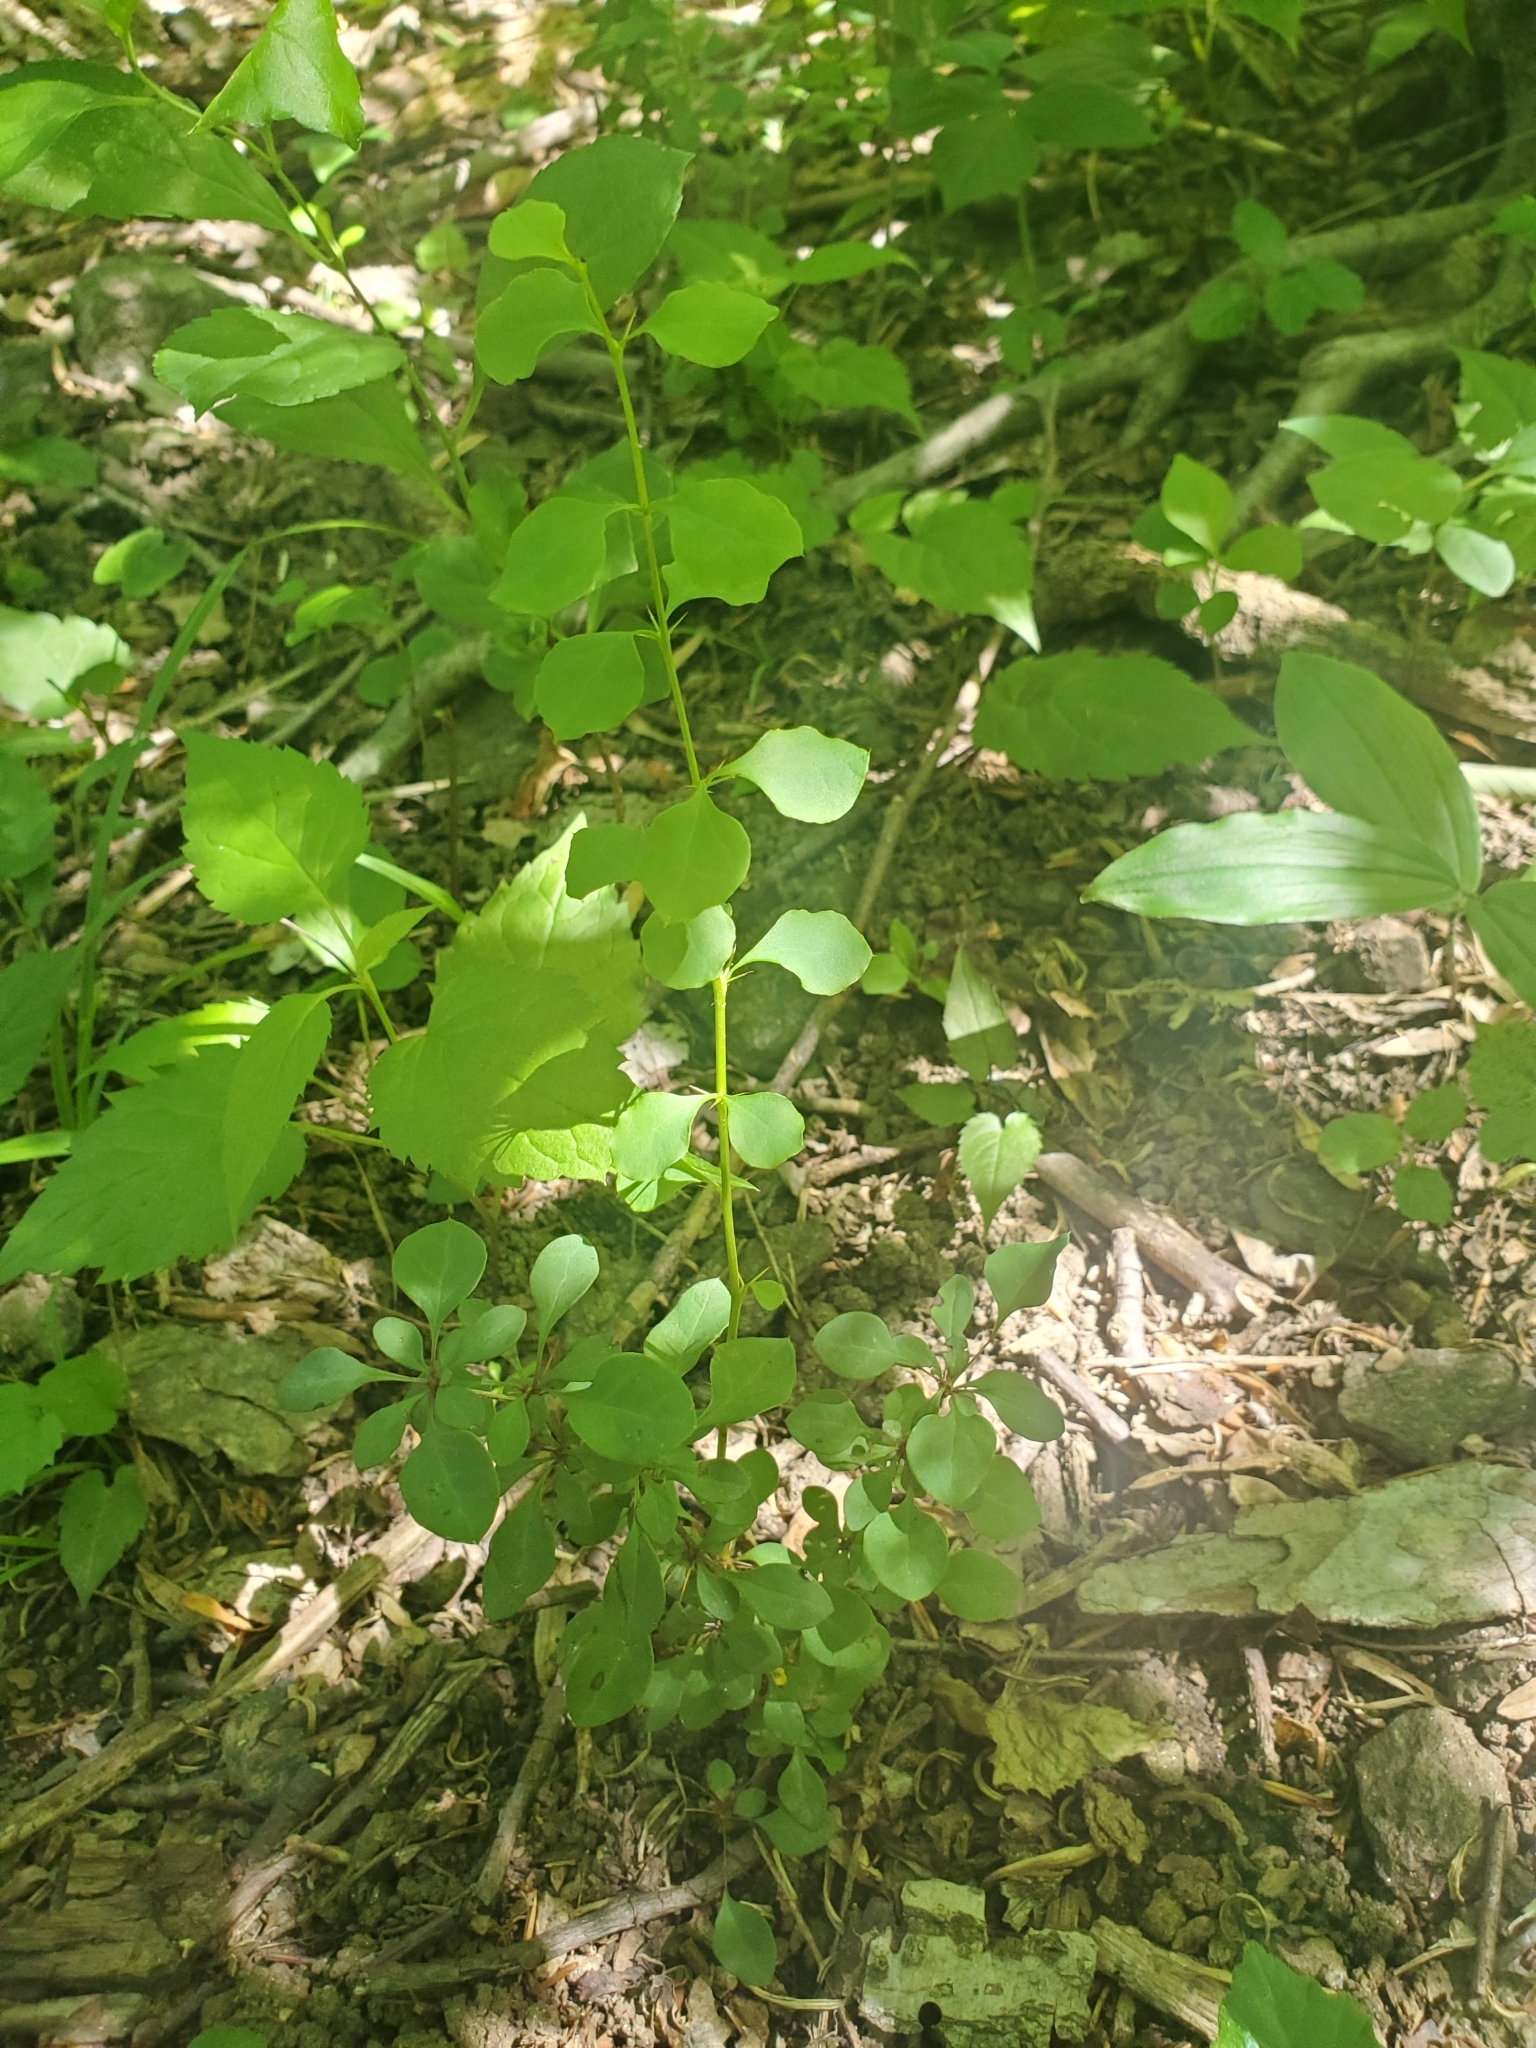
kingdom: Plantae
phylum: Tracheophyta
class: Magnoliopsida
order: Ranunculales
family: Berberidaceae
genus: Berberis
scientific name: Berberis thunbergii
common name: Japanese barberry
